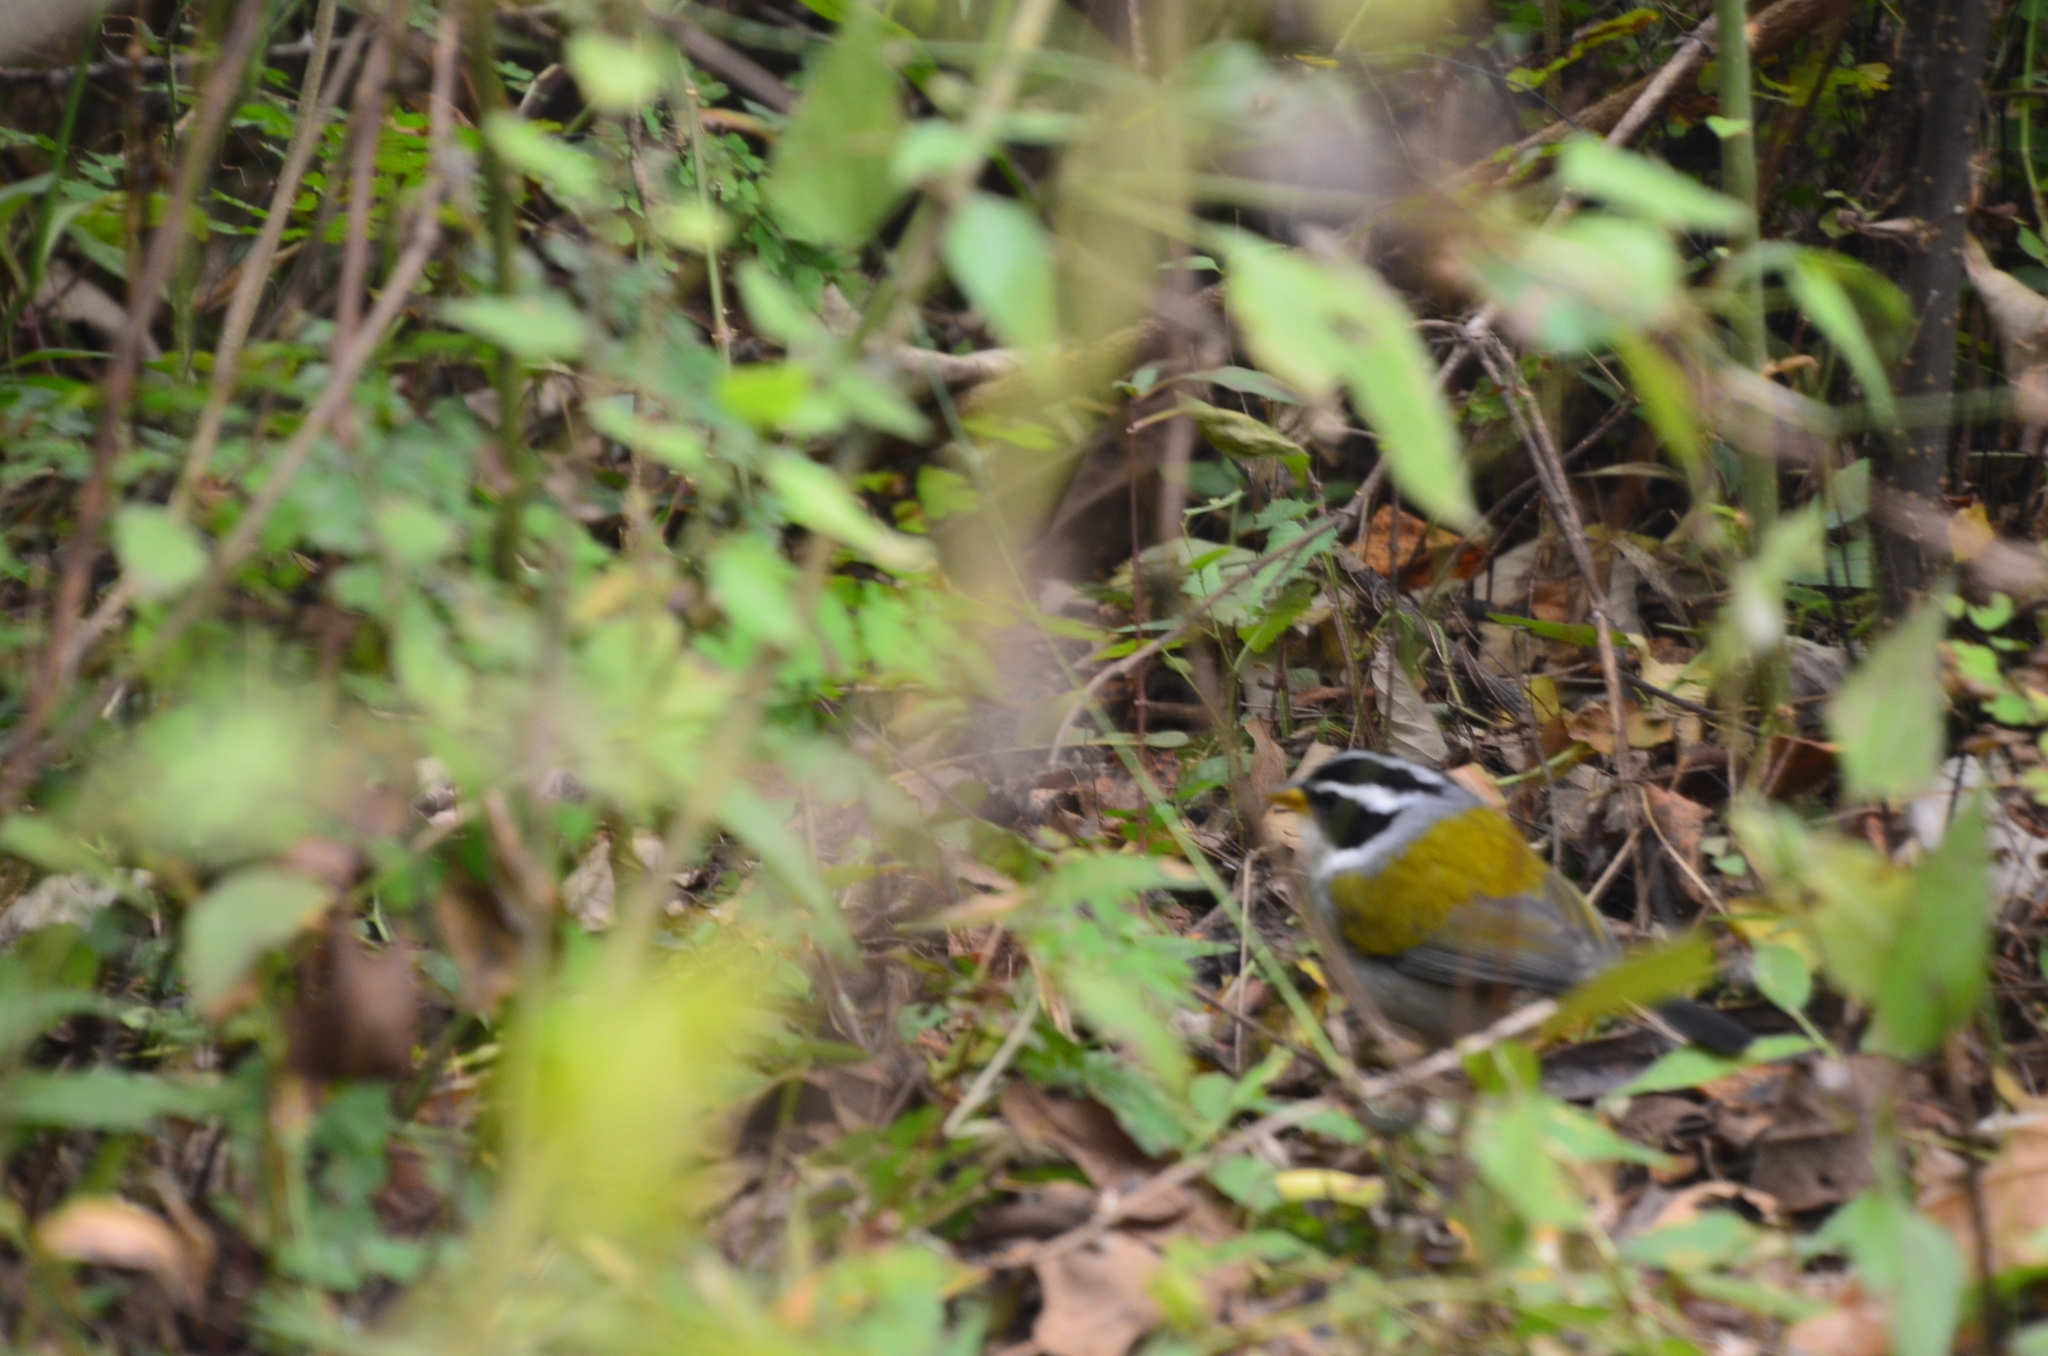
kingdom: Animalia
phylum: Chordata
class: Aves
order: Passeriformes
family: Passerellidae
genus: Arremon
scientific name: Arremon dorbignii
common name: Moss-backed sparrow
